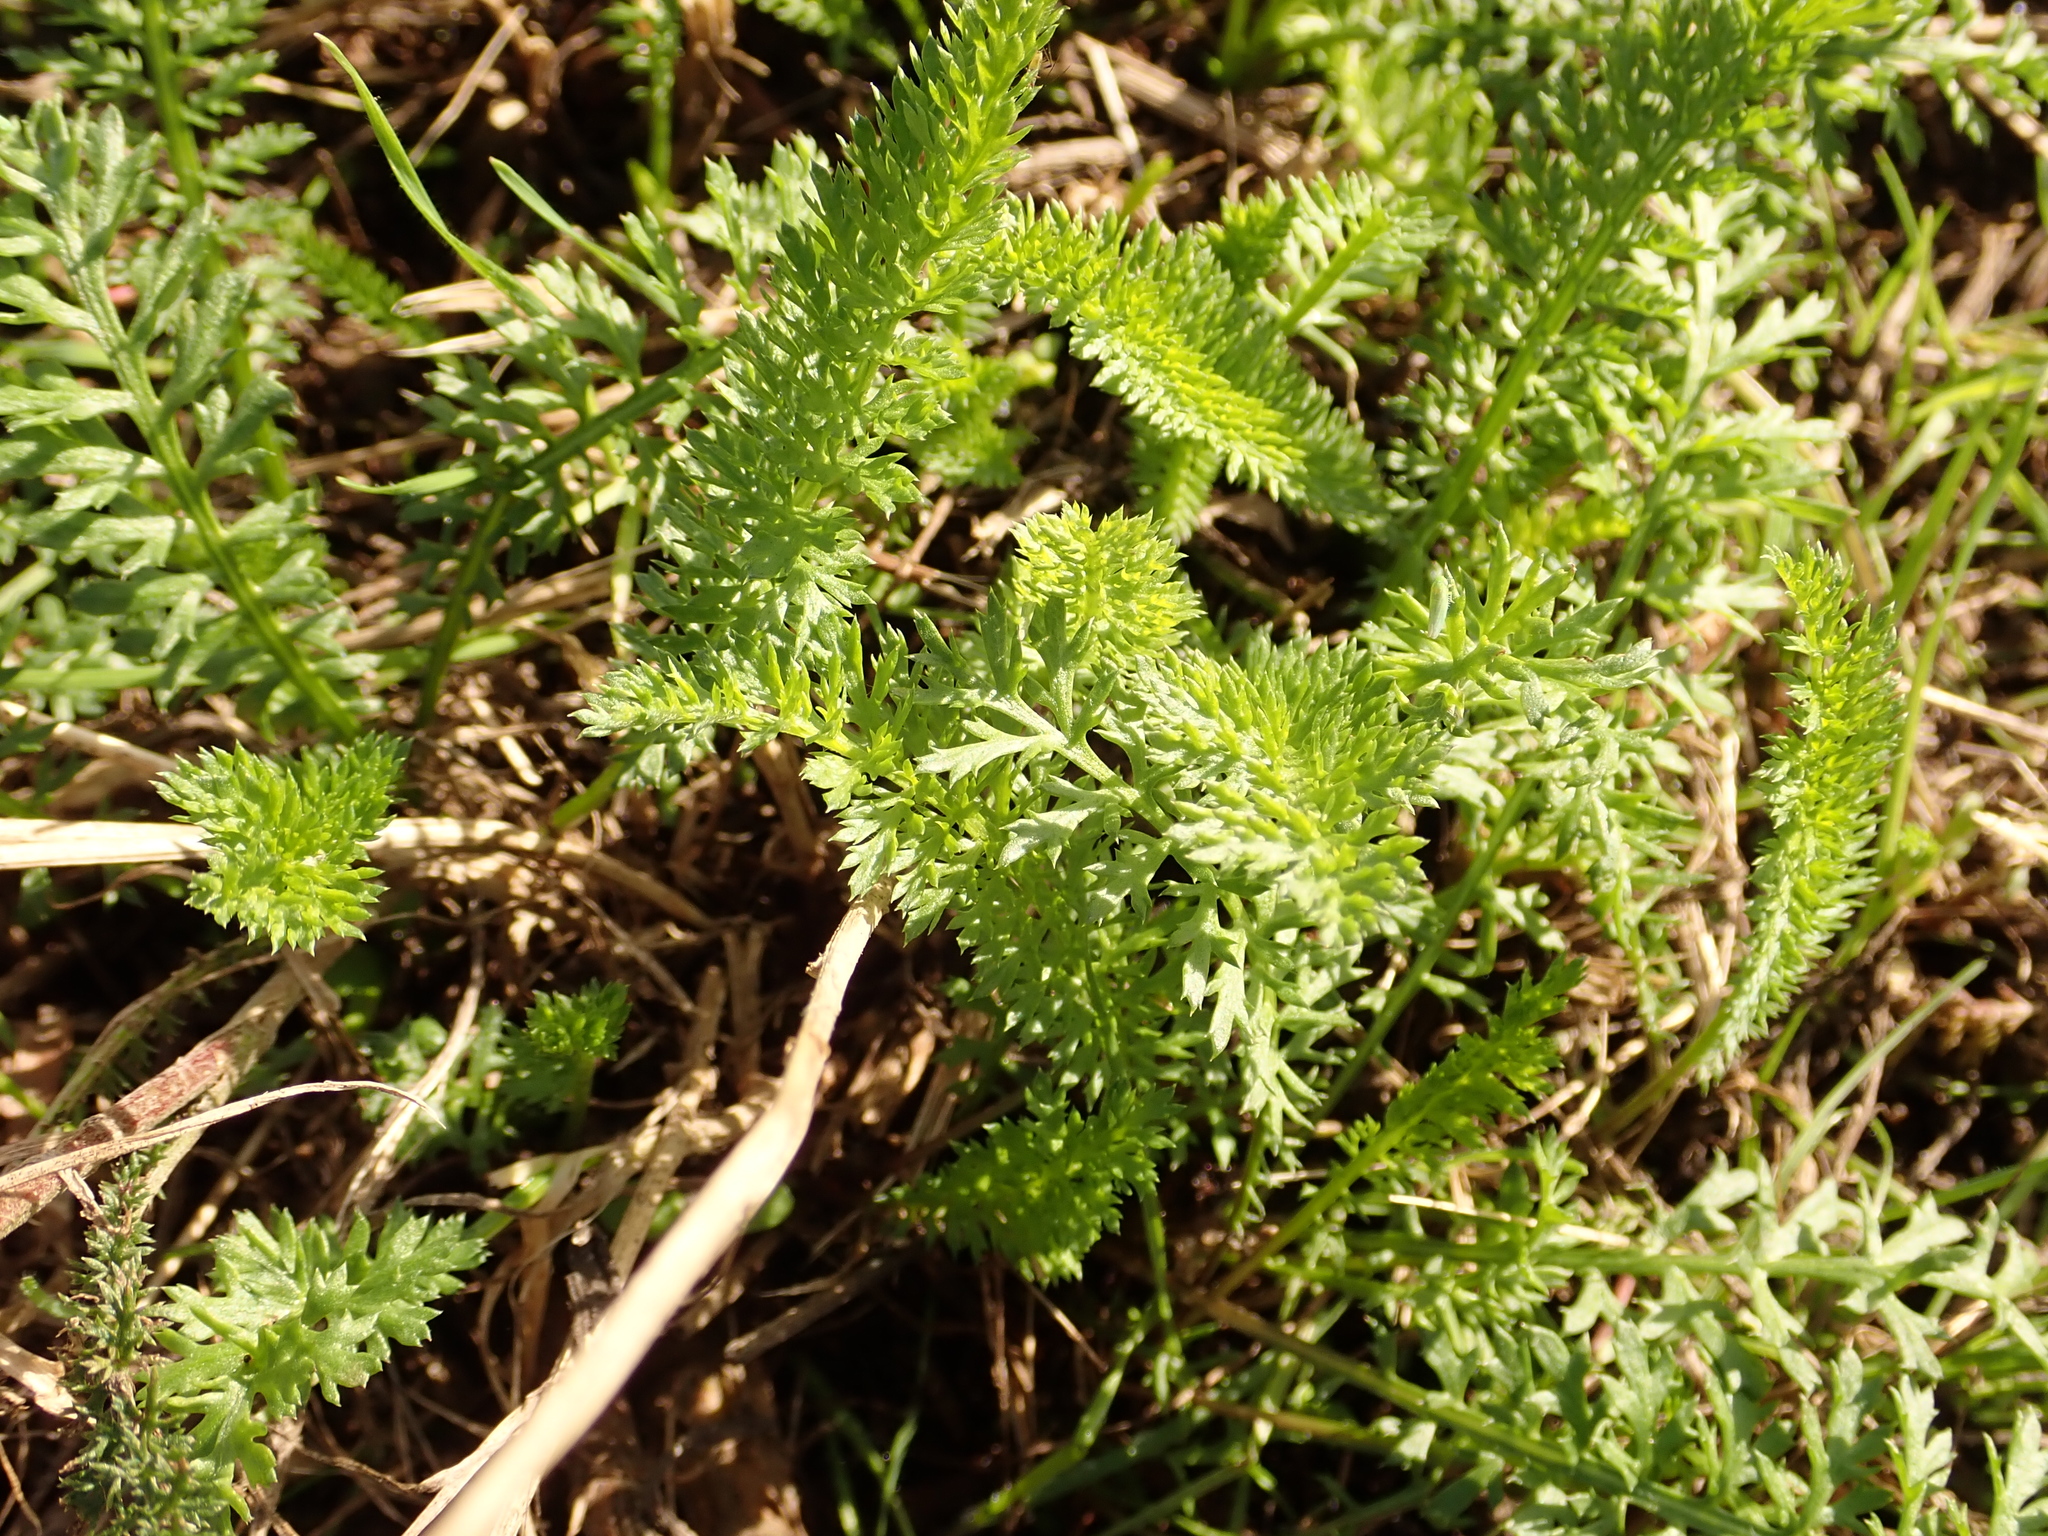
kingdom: Plantae
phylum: Tracheophyta
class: Magnoliopsida
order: Asterales
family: Asteraceae
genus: Achillea
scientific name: Achillea millefolium
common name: Yarrow
